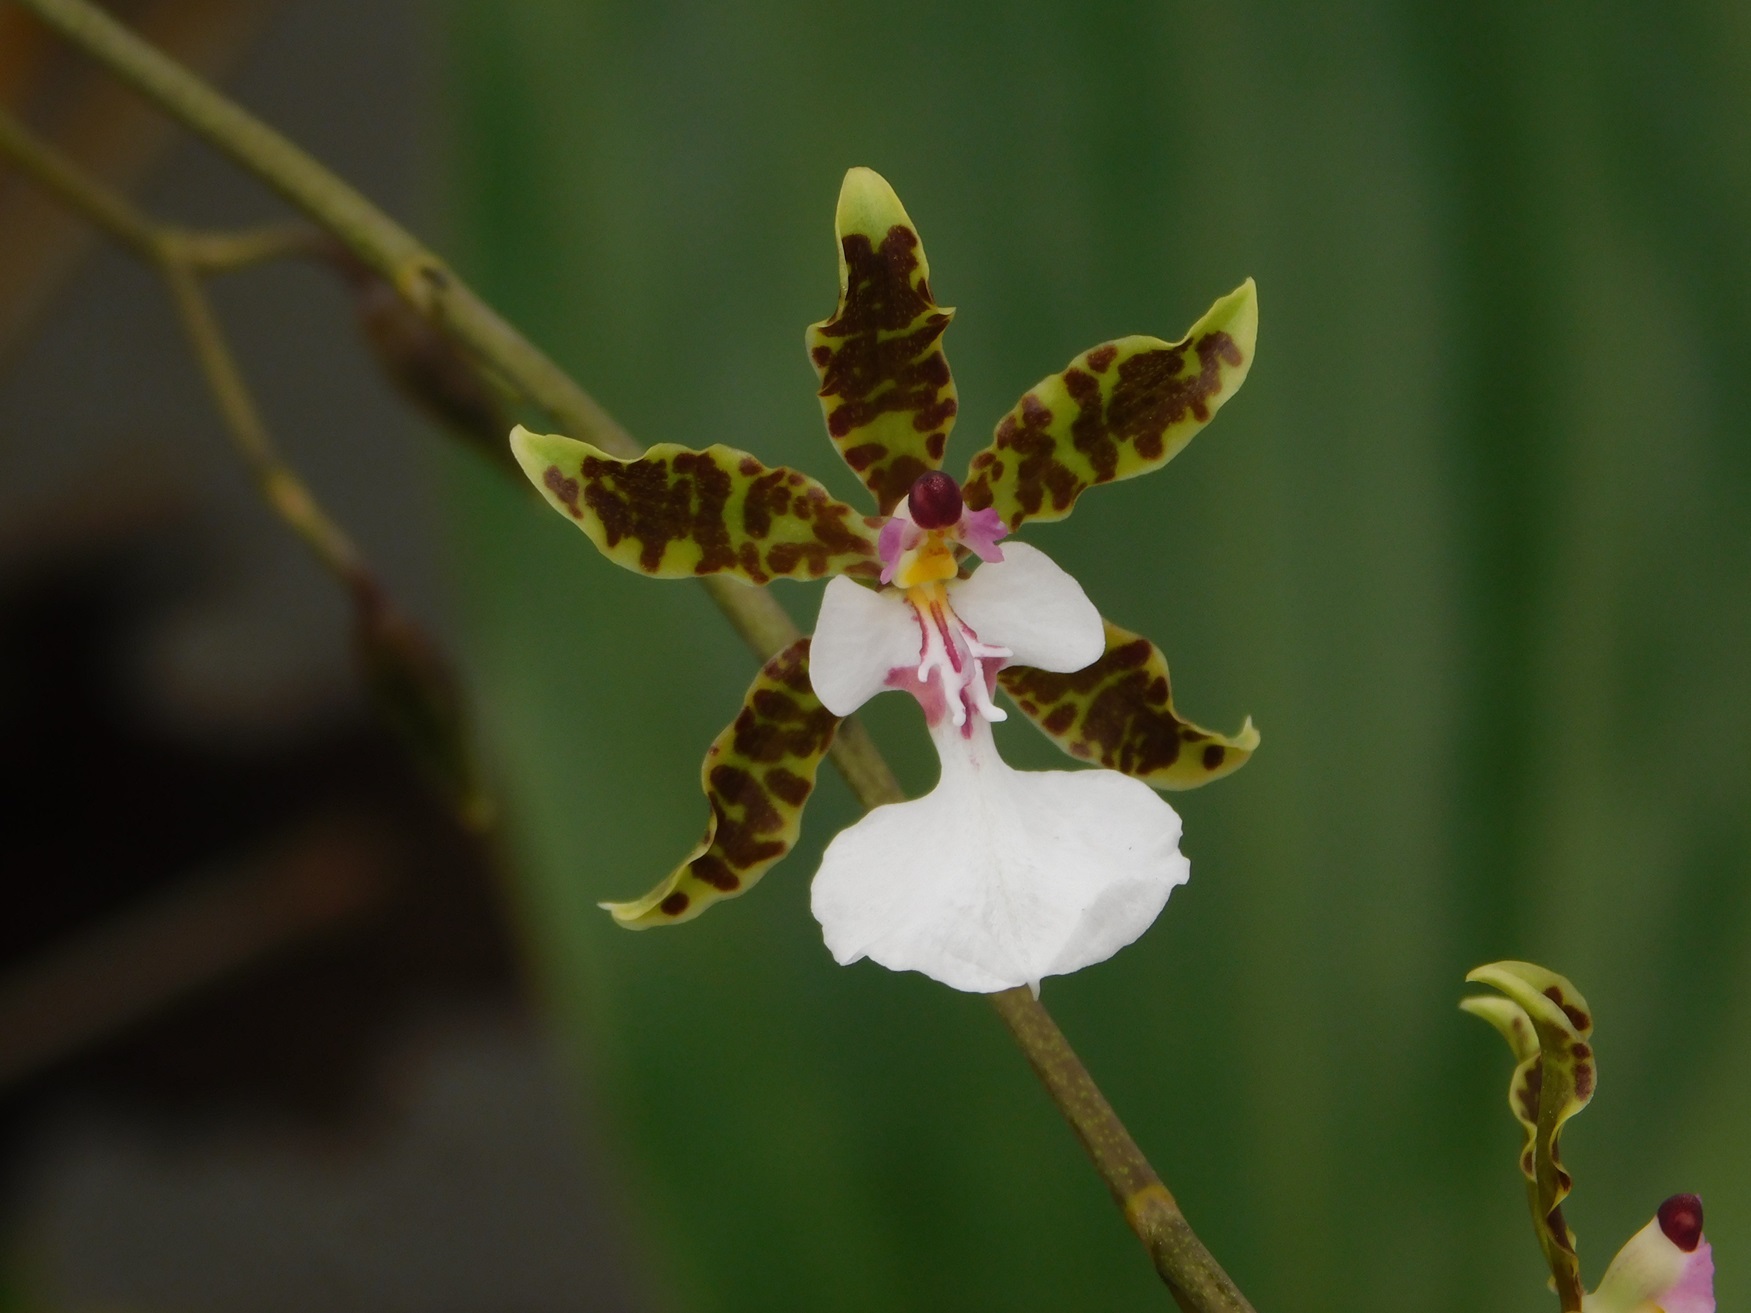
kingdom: Plantae
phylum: Tracheophyta
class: Liliopsida
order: Asparagales
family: Orchidaceae
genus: Oncidium
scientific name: Oncidium leucochilum
